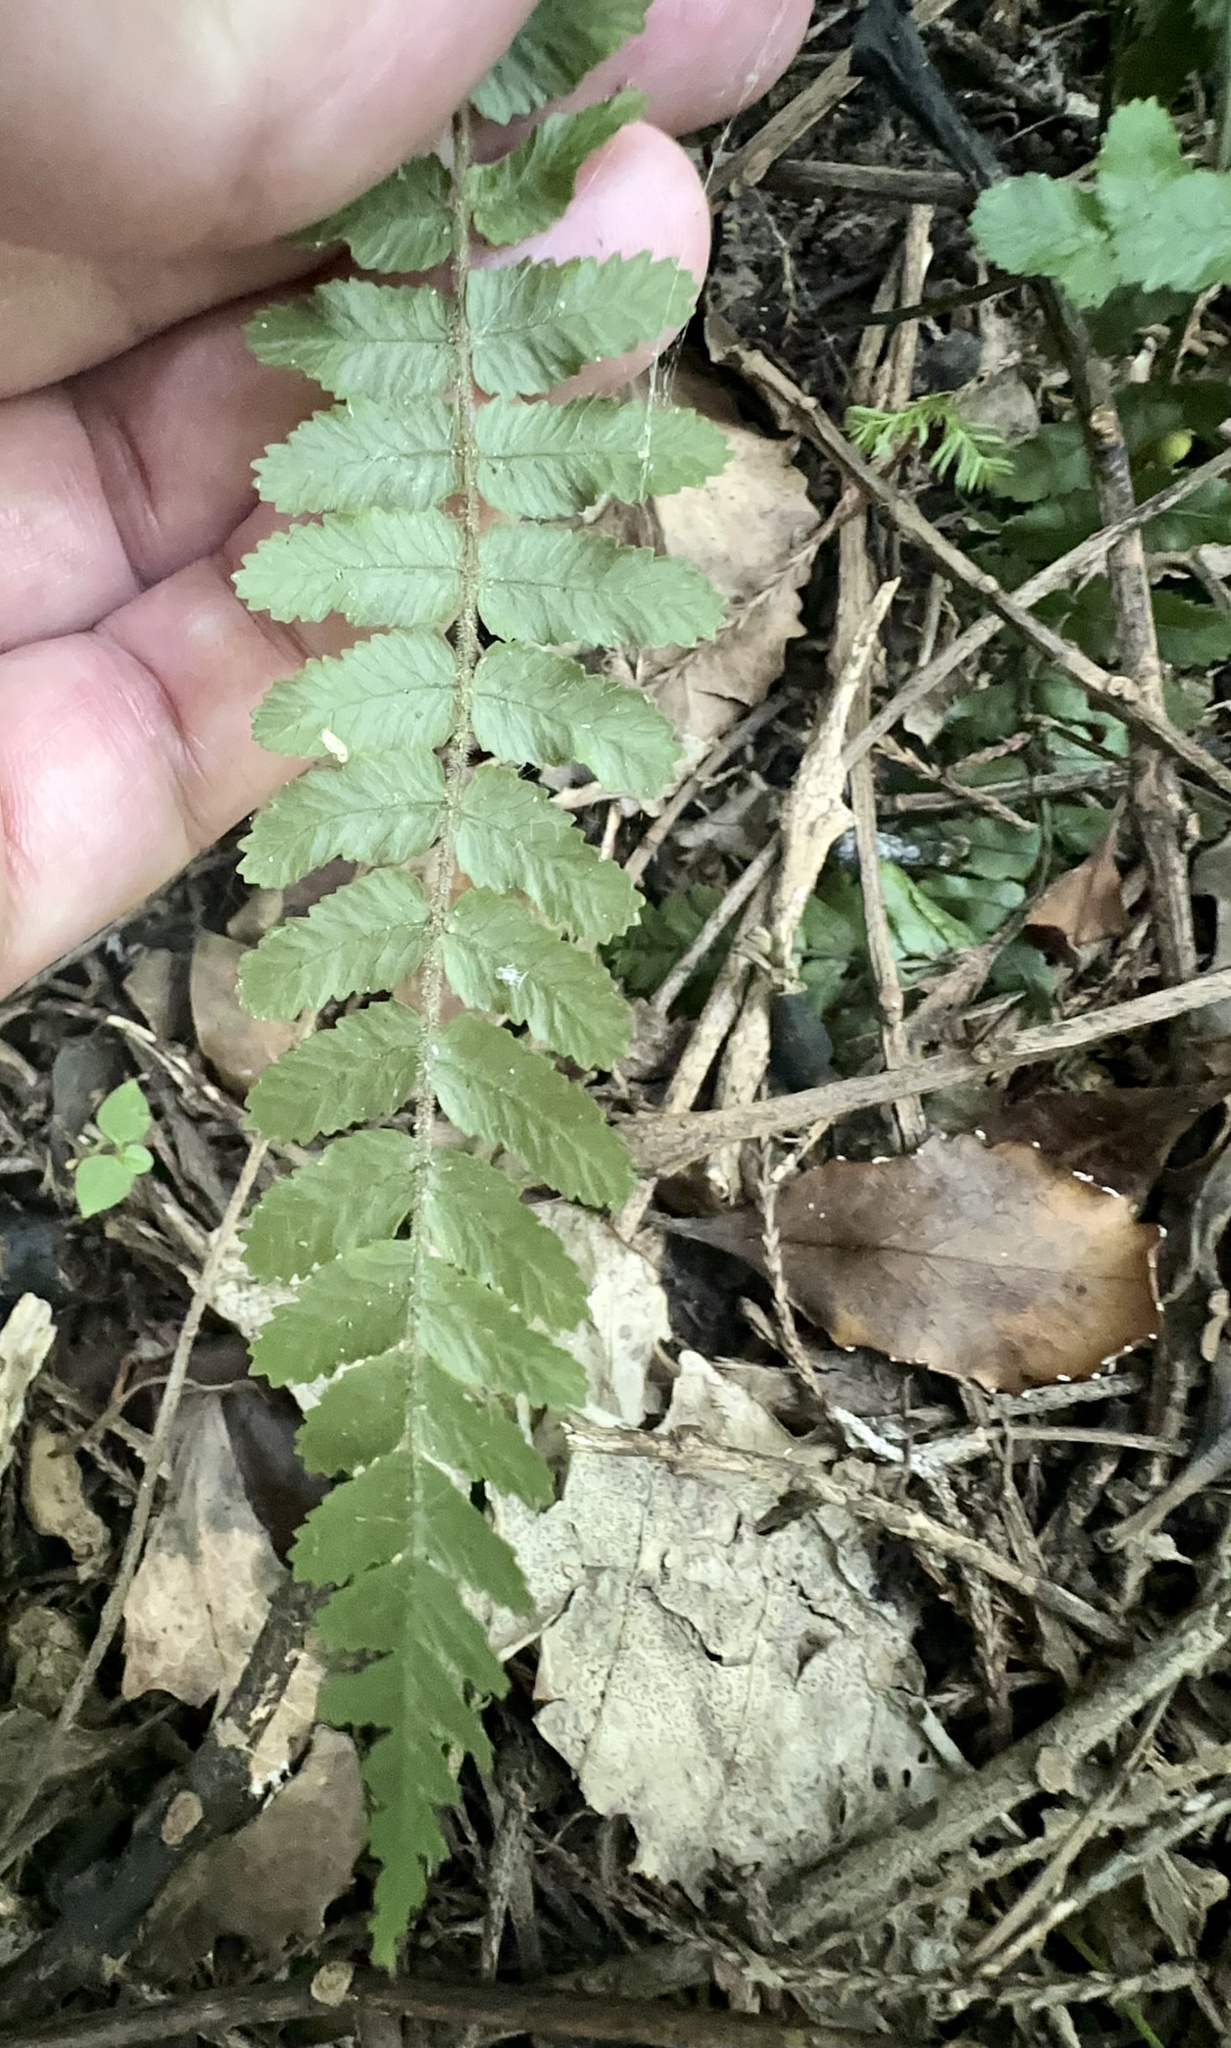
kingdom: Plantae
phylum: Tracheophyta
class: Polypodiopsida
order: Polypodiales
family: Blechnaceae
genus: Icarus
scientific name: Icarus filiformis
